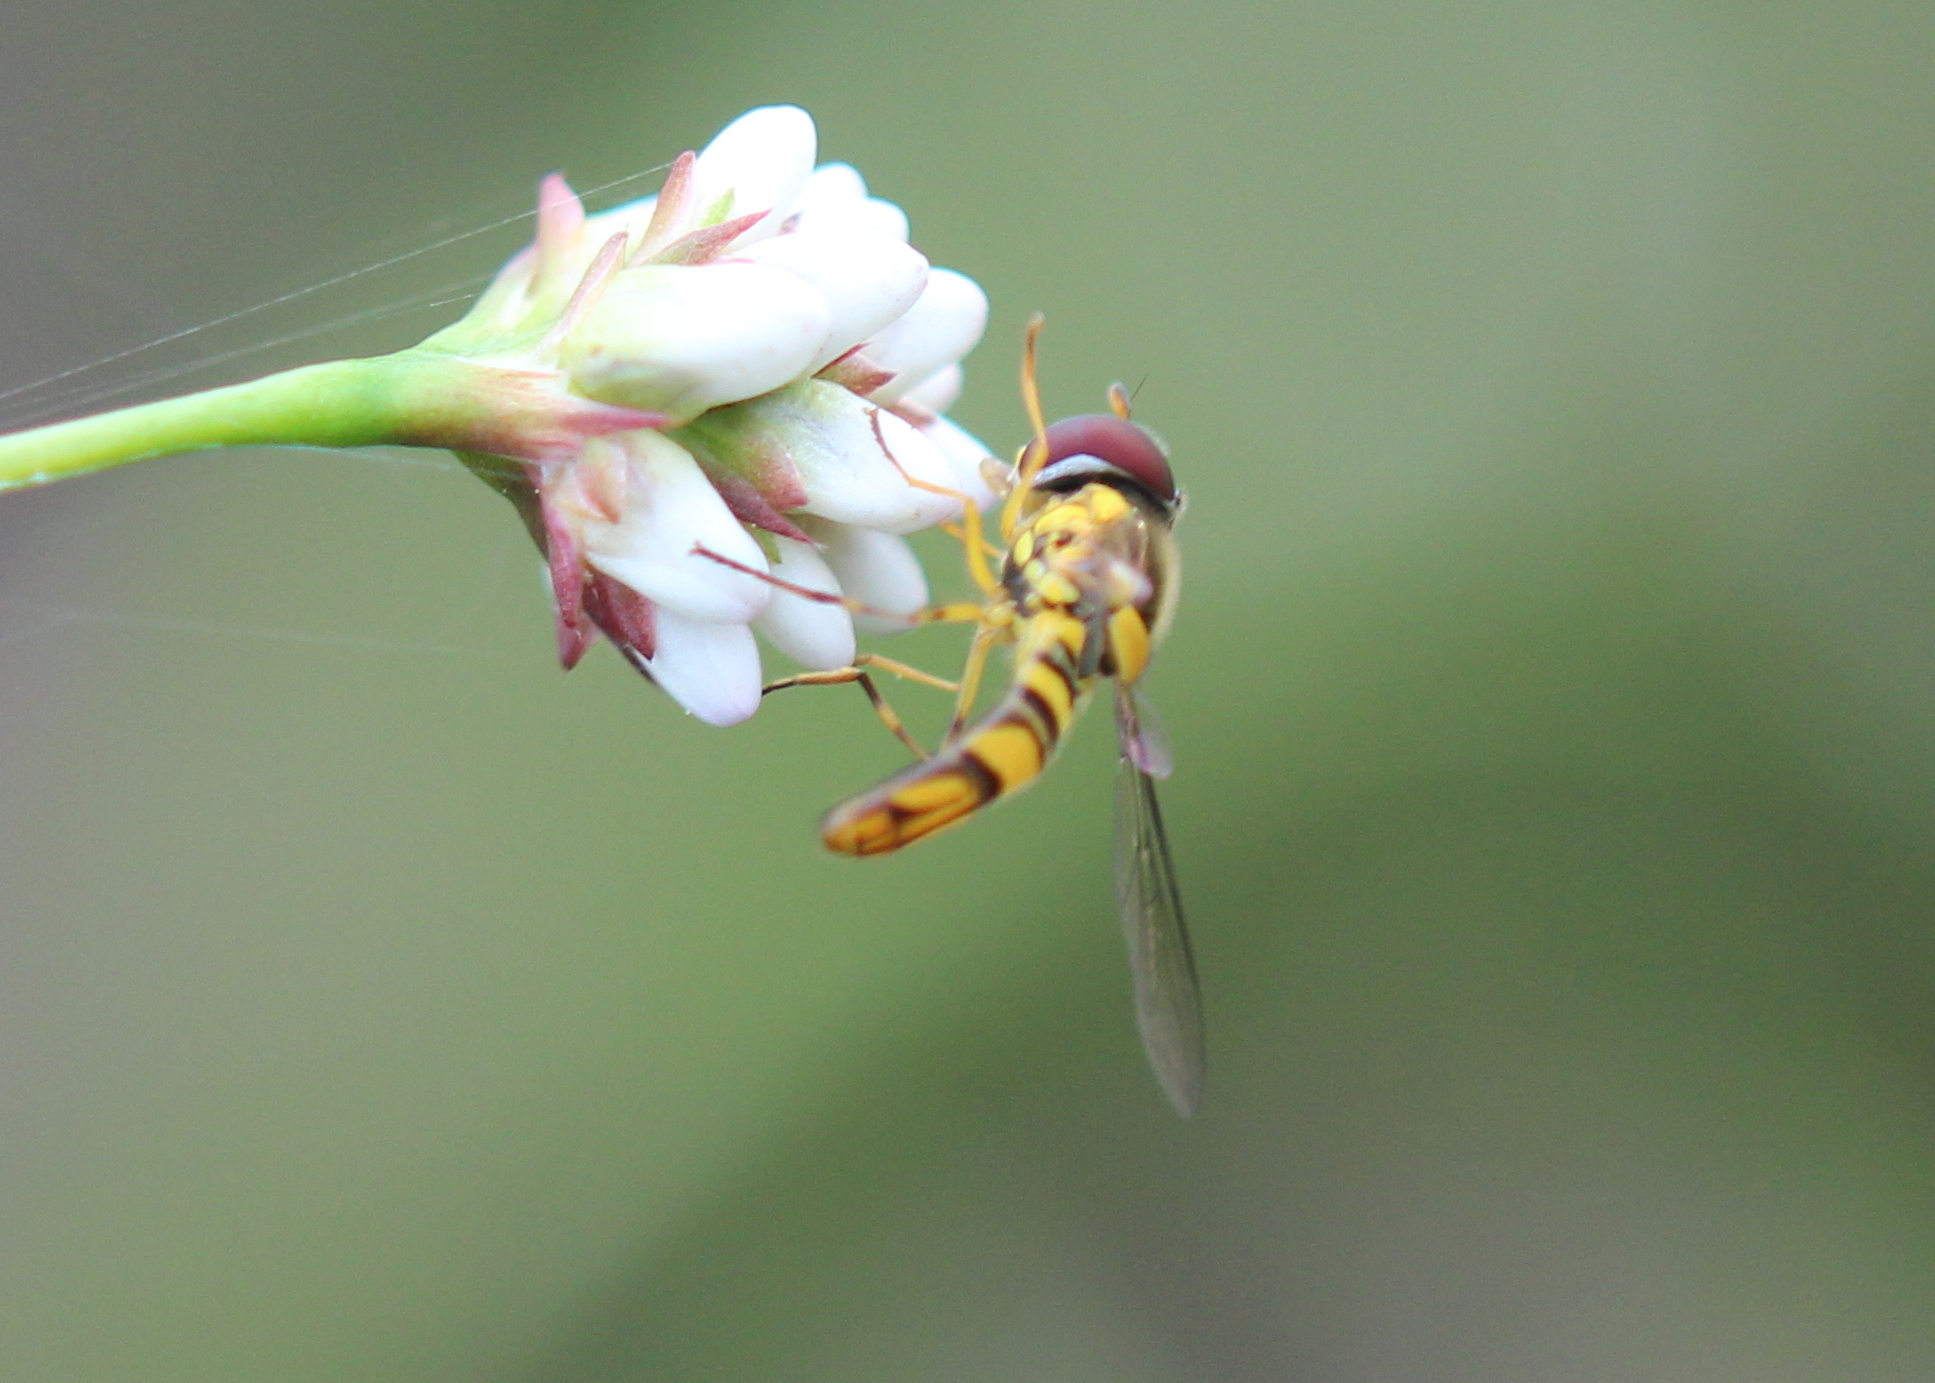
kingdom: Animalia
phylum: Arthropoda
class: Insecta
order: Diptera
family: Syrphidae
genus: Allograpta
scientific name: Allograpta obliqua
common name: Common oblique syrphid
